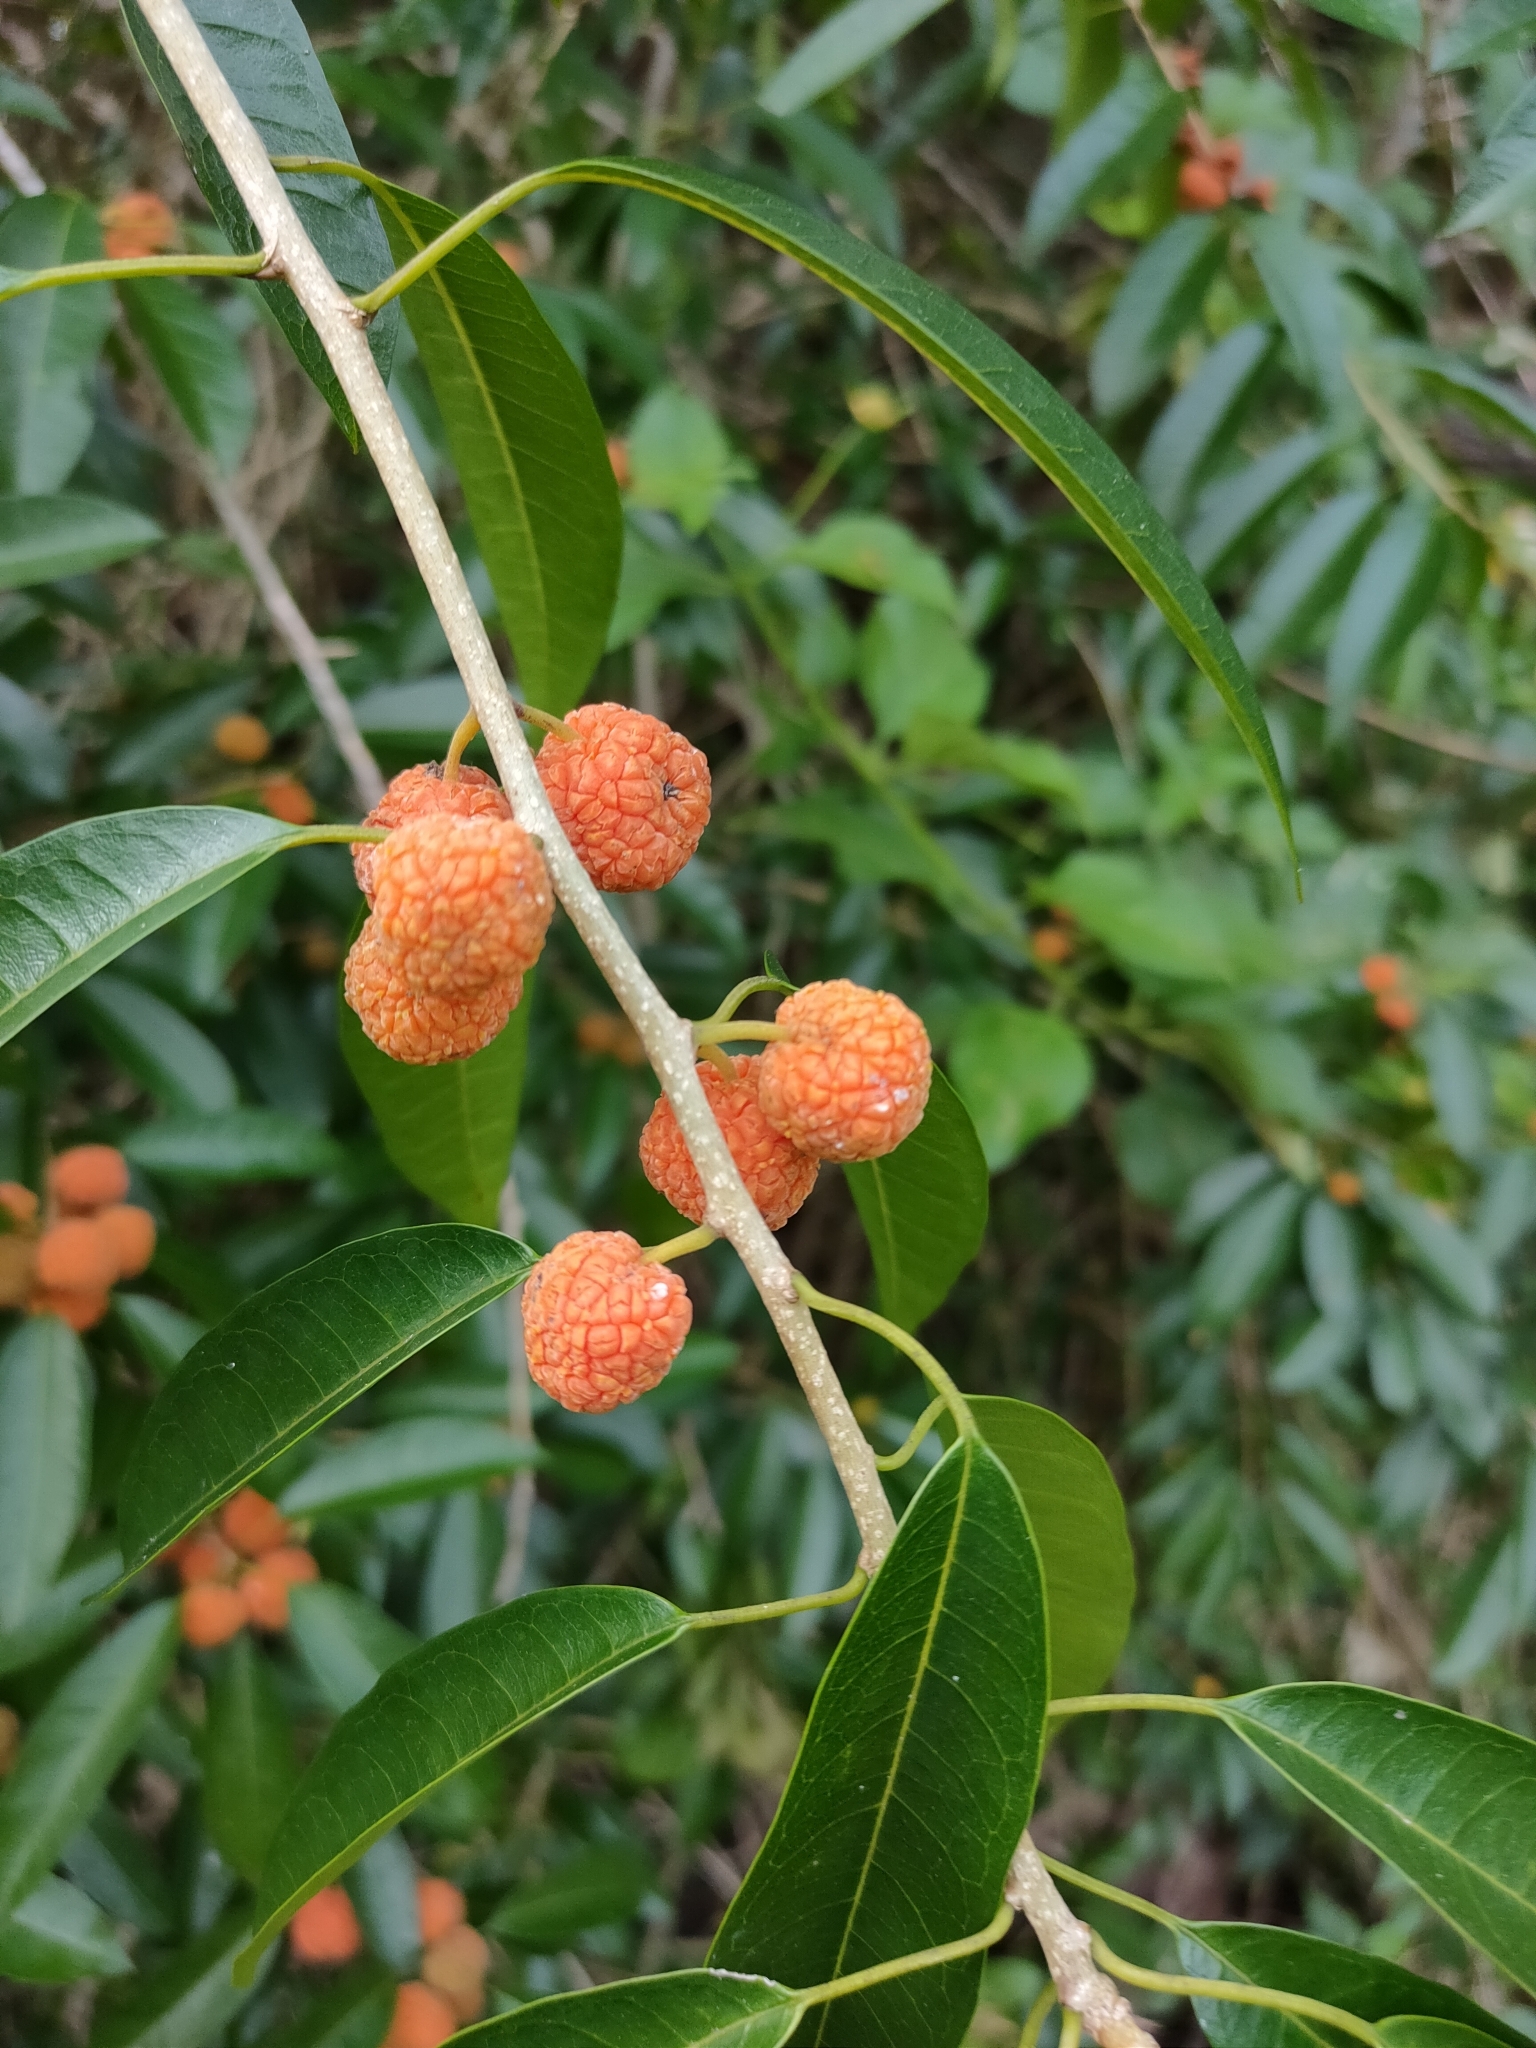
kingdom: Plantae
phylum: Tracheophyta
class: Magnoliopsida
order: Rosales
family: Moraceae
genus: Maclura
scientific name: Maclura cochinchinensis
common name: Cockspurthorn
